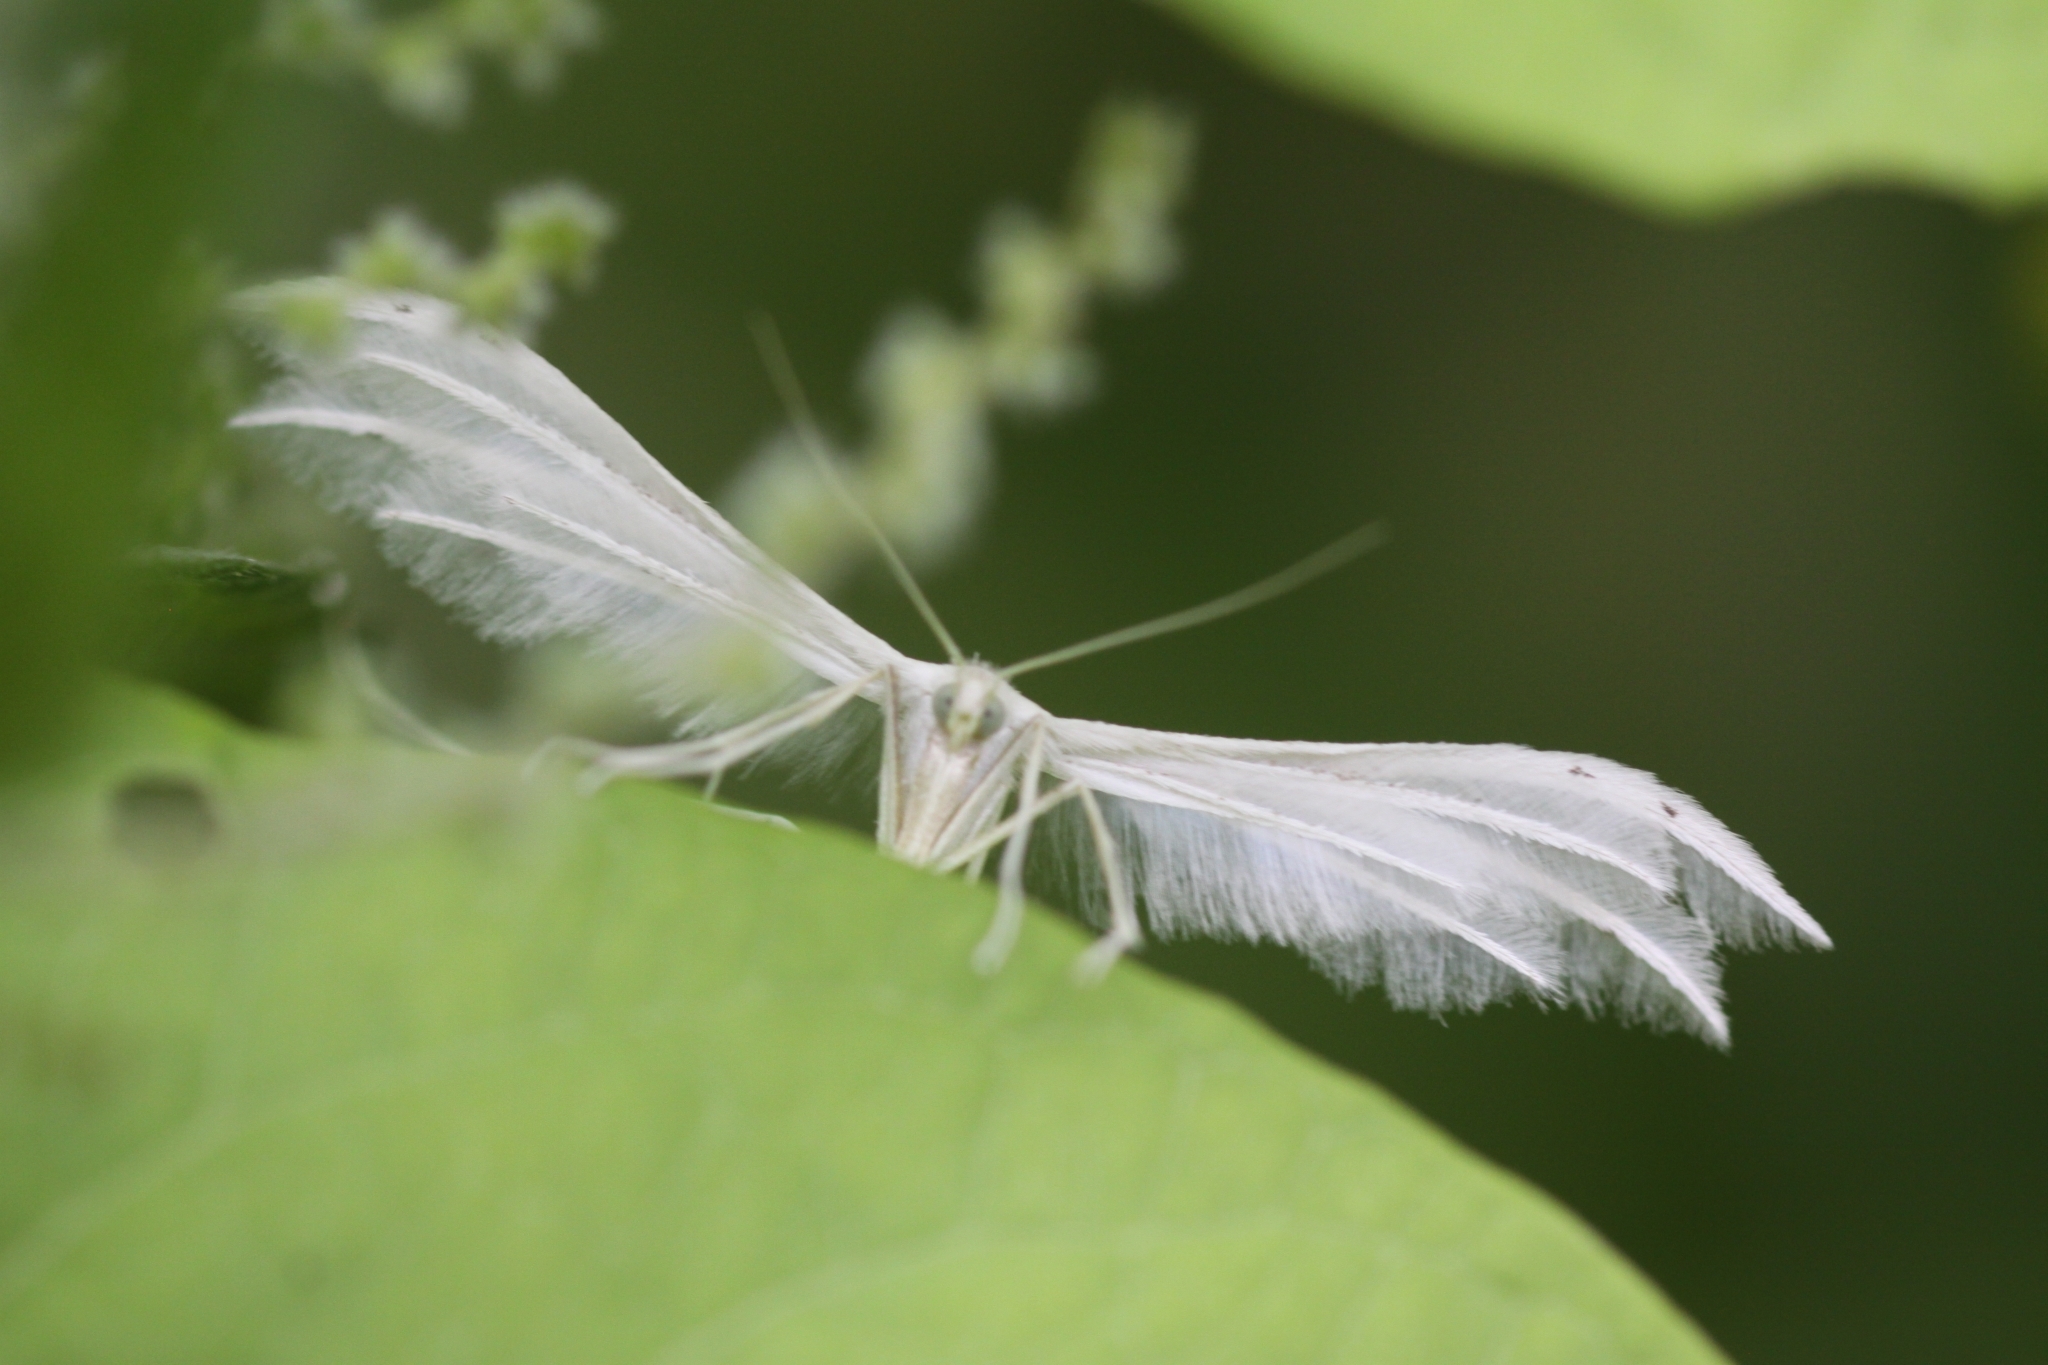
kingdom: Animalia
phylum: Arthropoda
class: Insecta
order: Lepidoptera
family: Pterophoridae
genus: Pterophorus
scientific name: Pterophorus pentadactyla
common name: White plume moth
